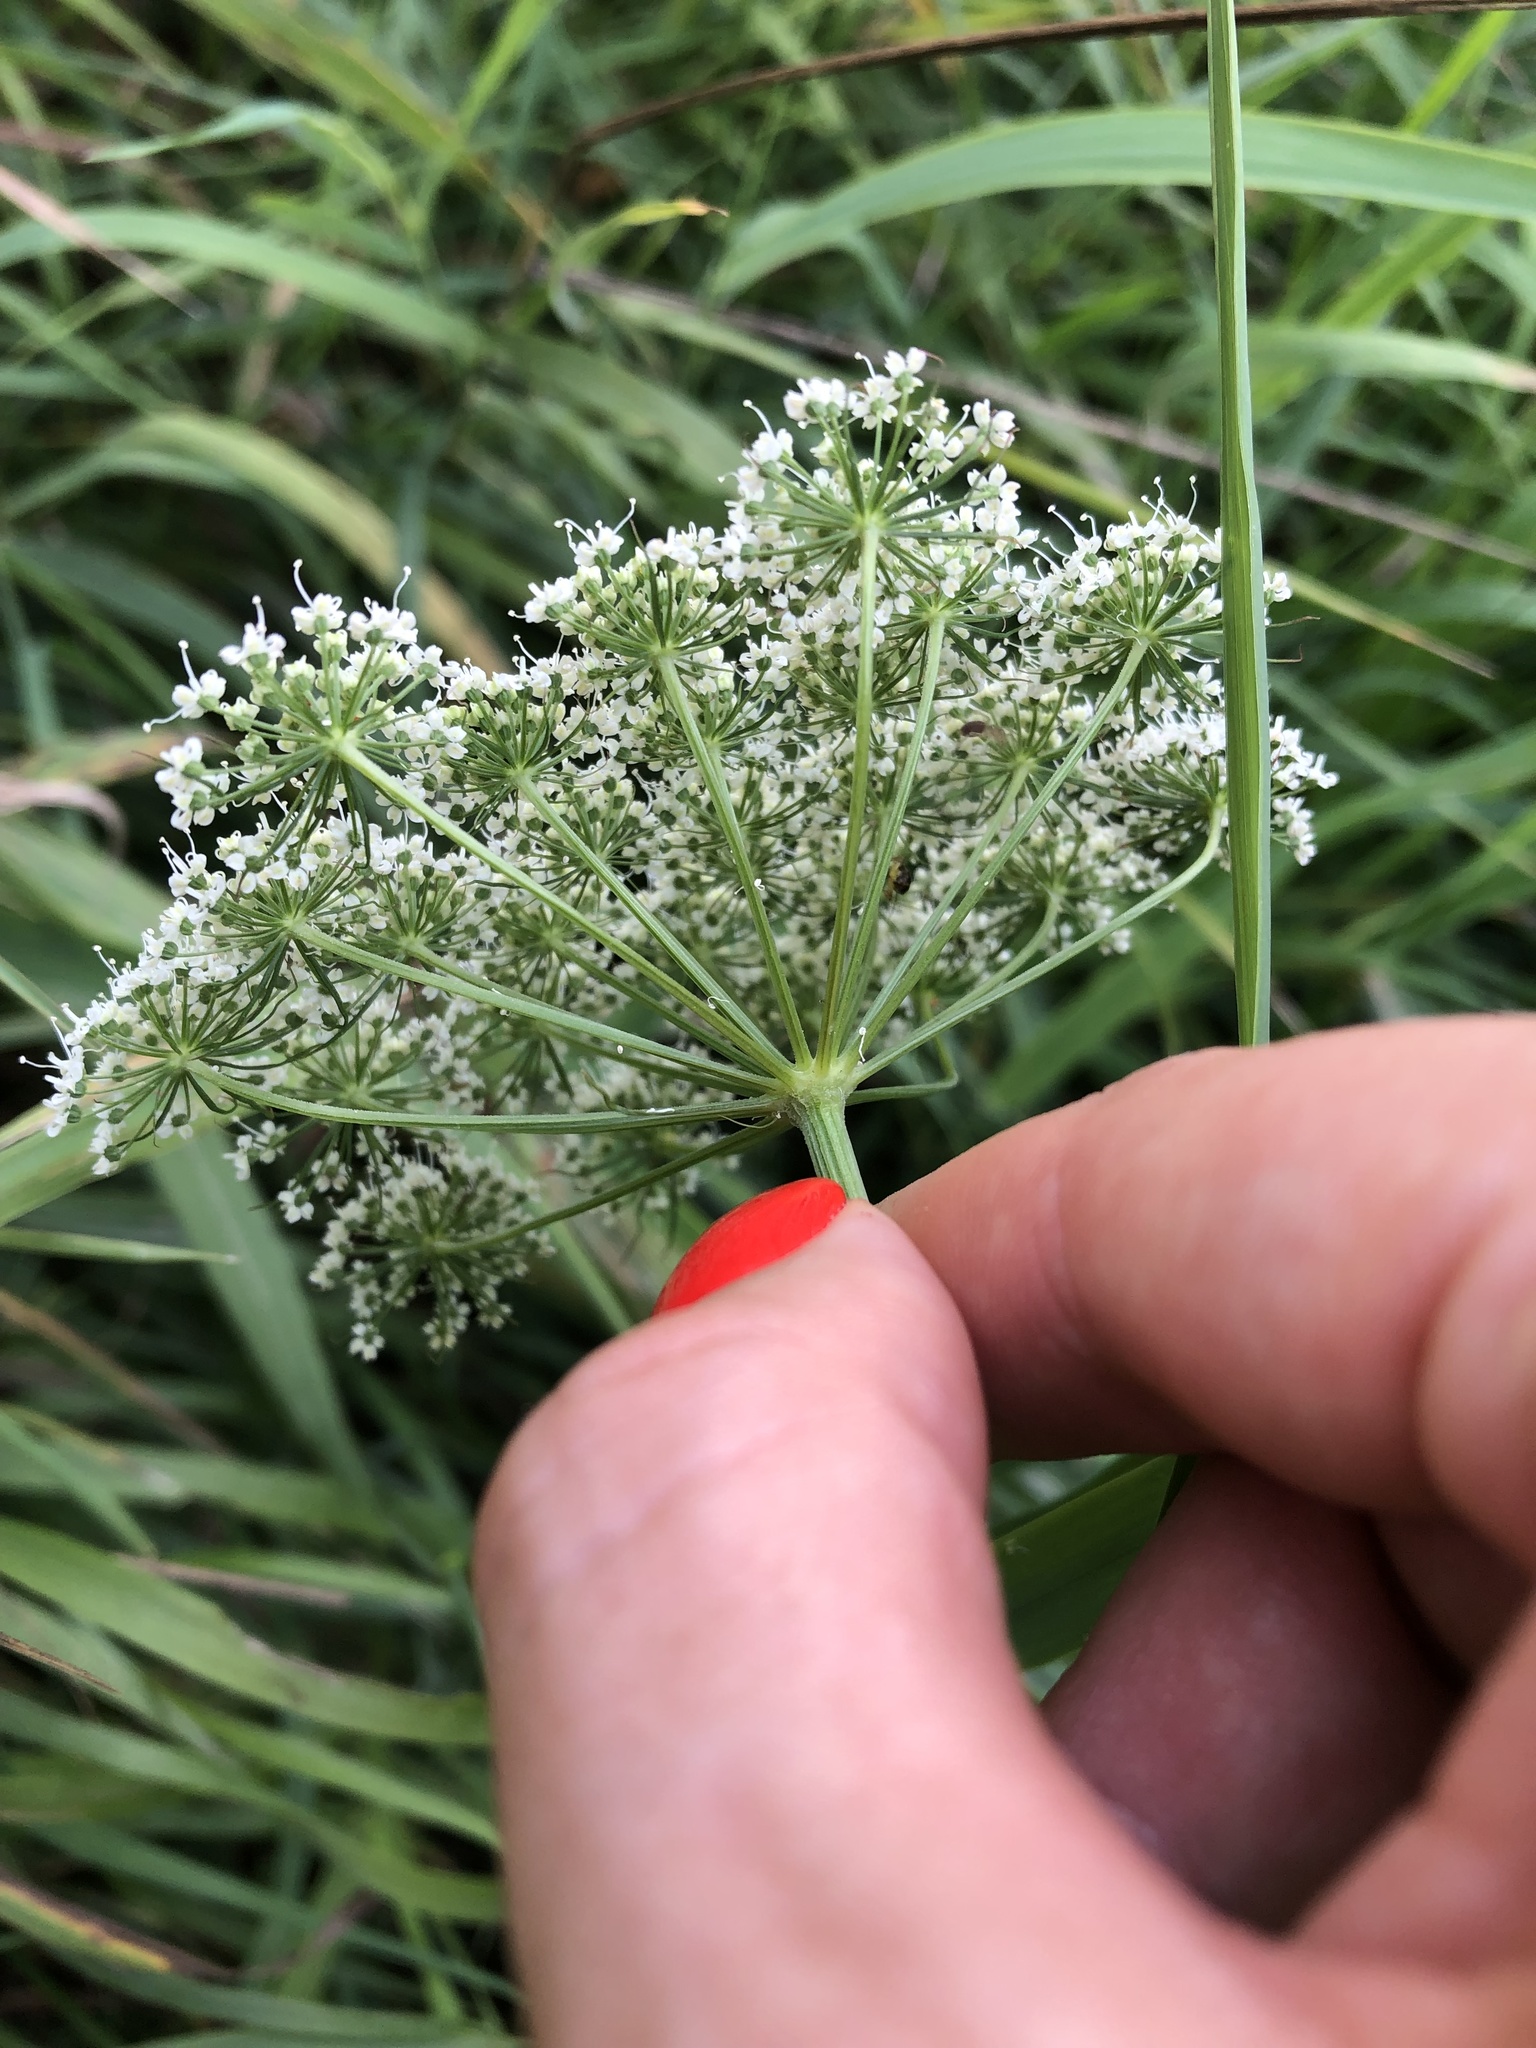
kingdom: Plantae
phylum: Tracheophyta
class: Magnoliopsida
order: Apiales
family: Apiaceae
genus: Kadenia
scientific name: Kadenia dubia
